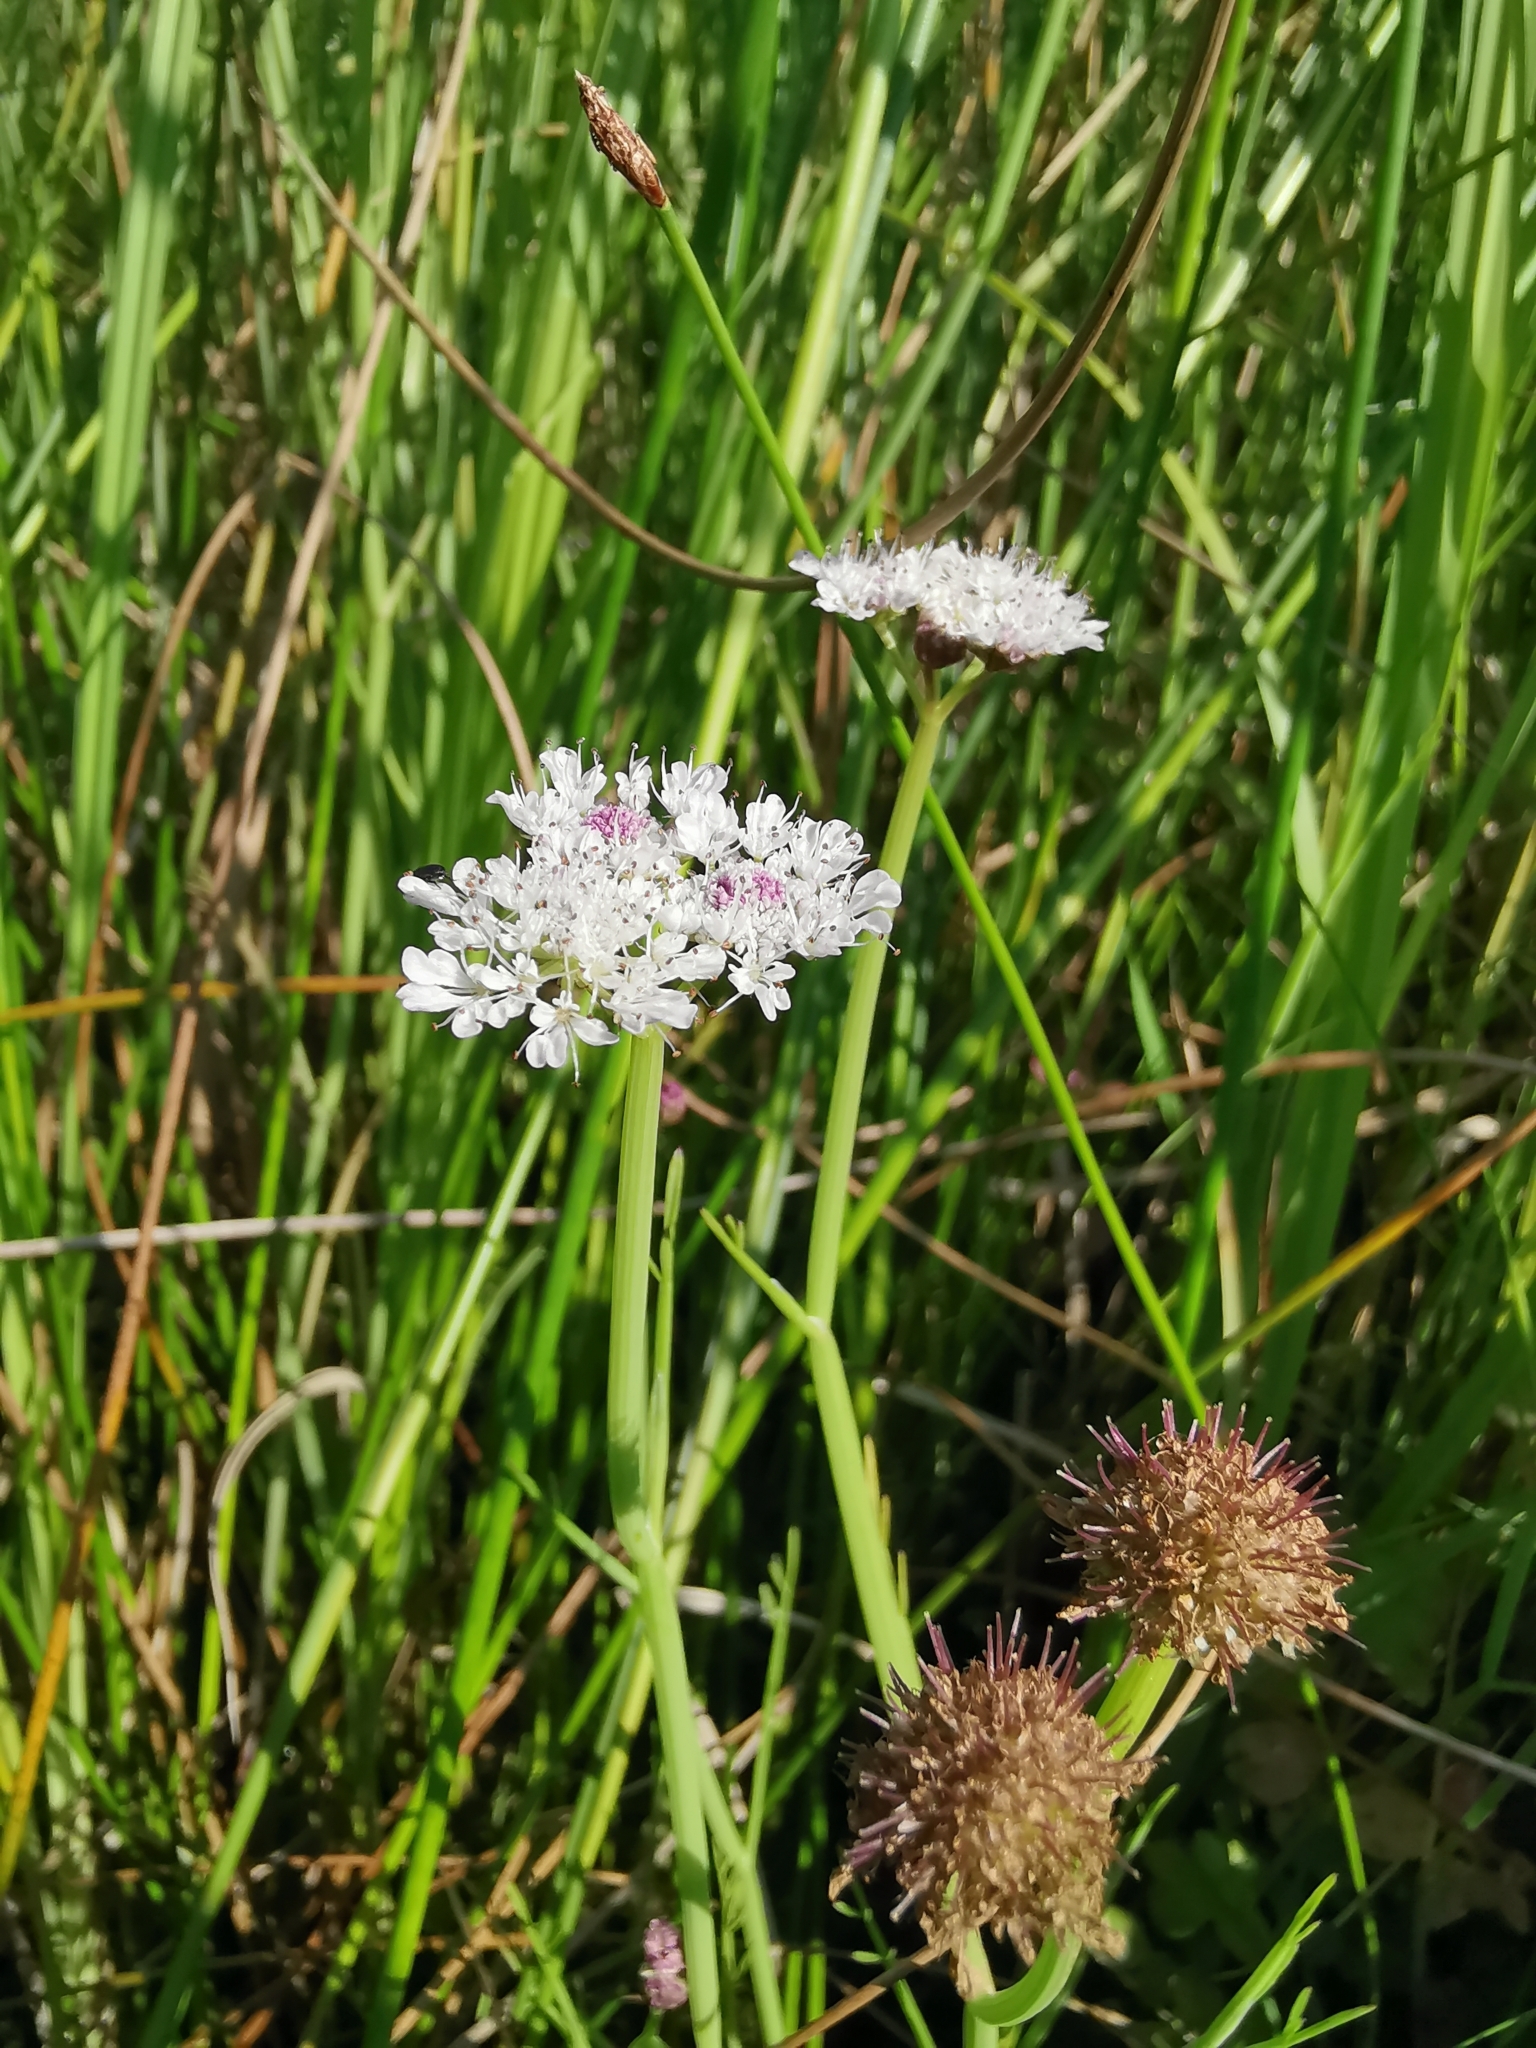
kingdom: Plantae
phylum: Tracheophyta
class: Magnoliopsida
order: Apiales
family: Apiaceae
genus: Oenanthe
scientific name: Oenanthe fistulosa
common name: Tubular water-dropwort
